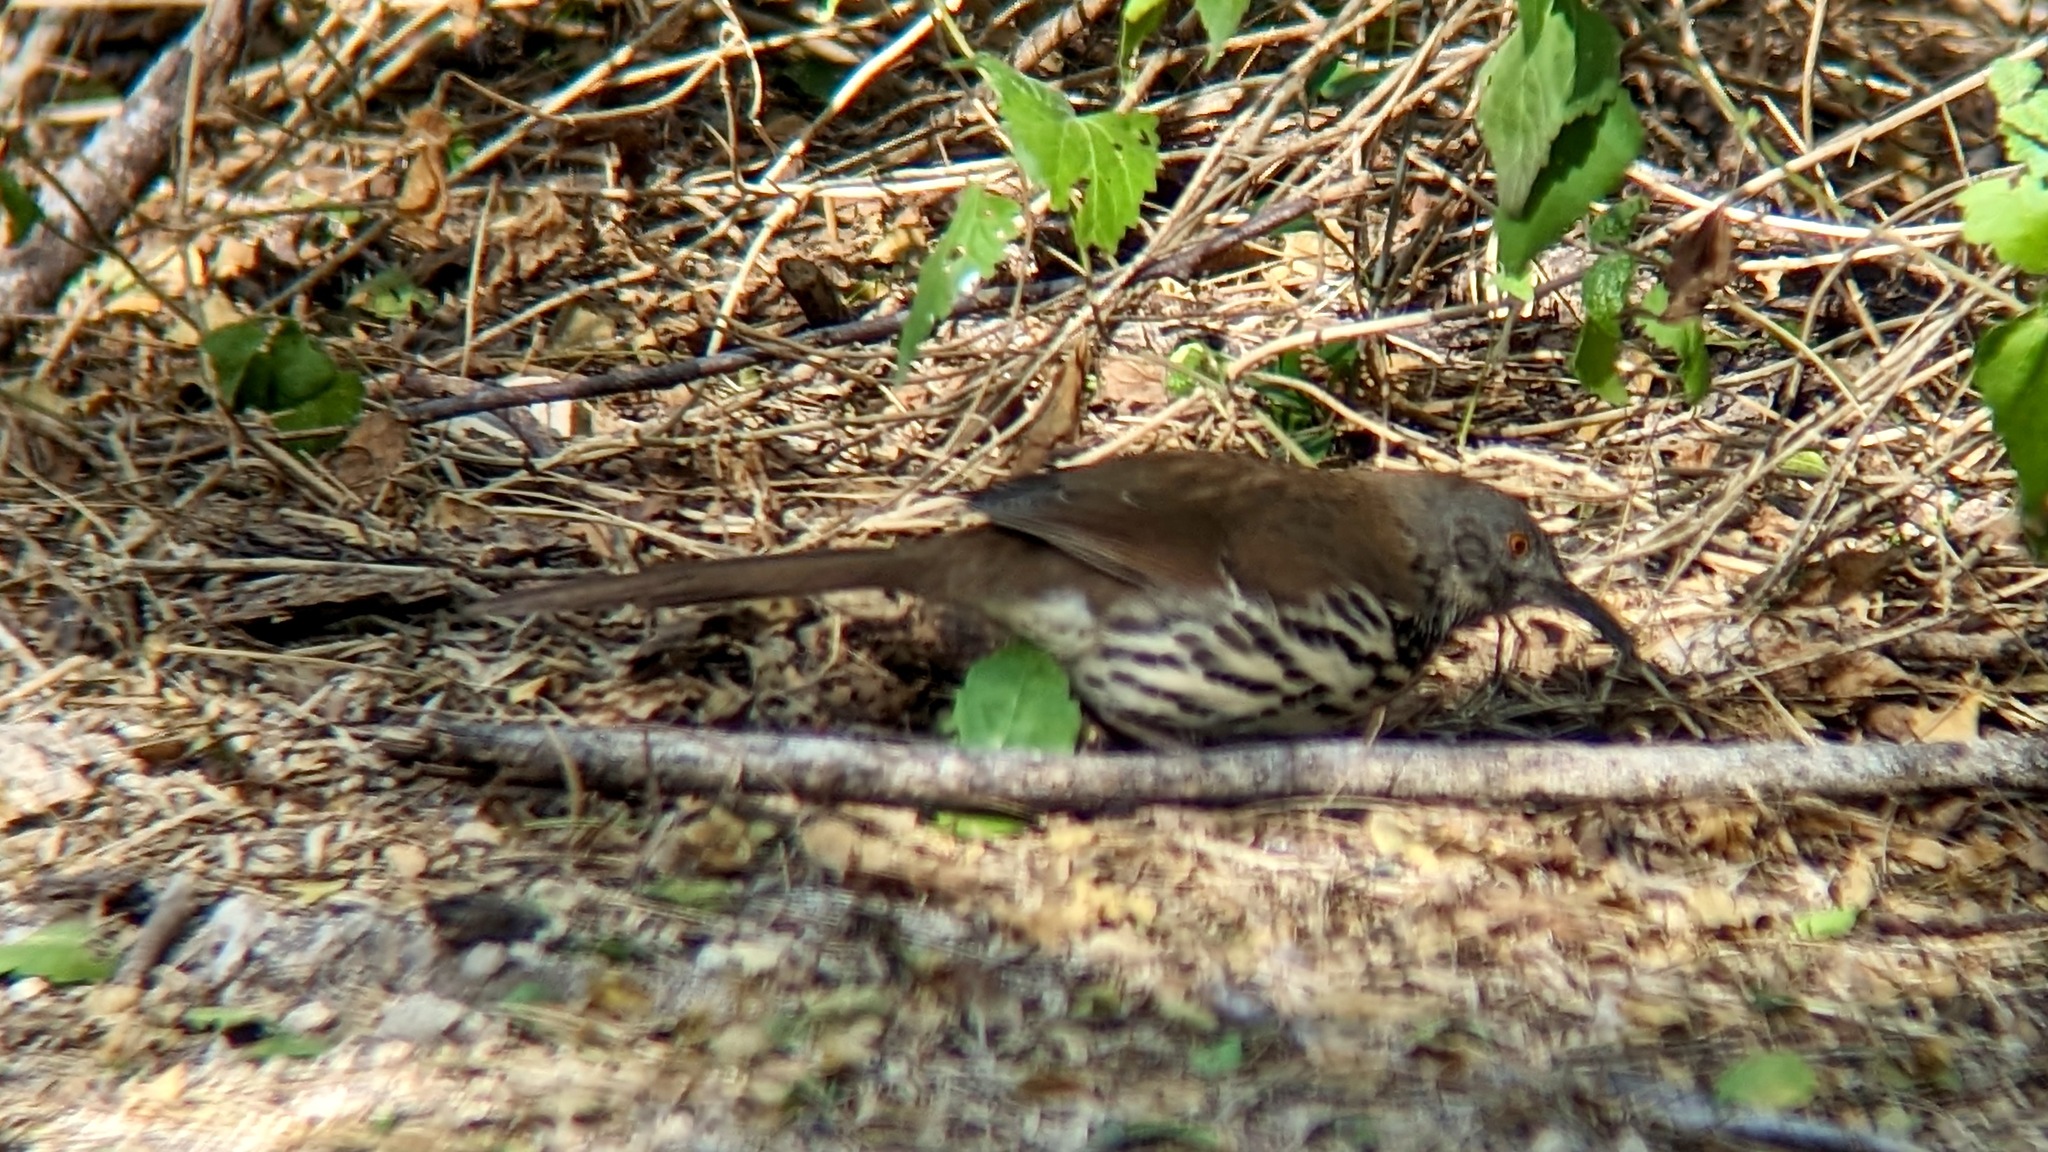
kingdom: Animalia
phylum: Chordata
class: Aves
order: Passeriformes
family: Mimidae
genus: Toxostoma
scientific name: Toxostoma longirostre
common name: Long-billed thrasher
